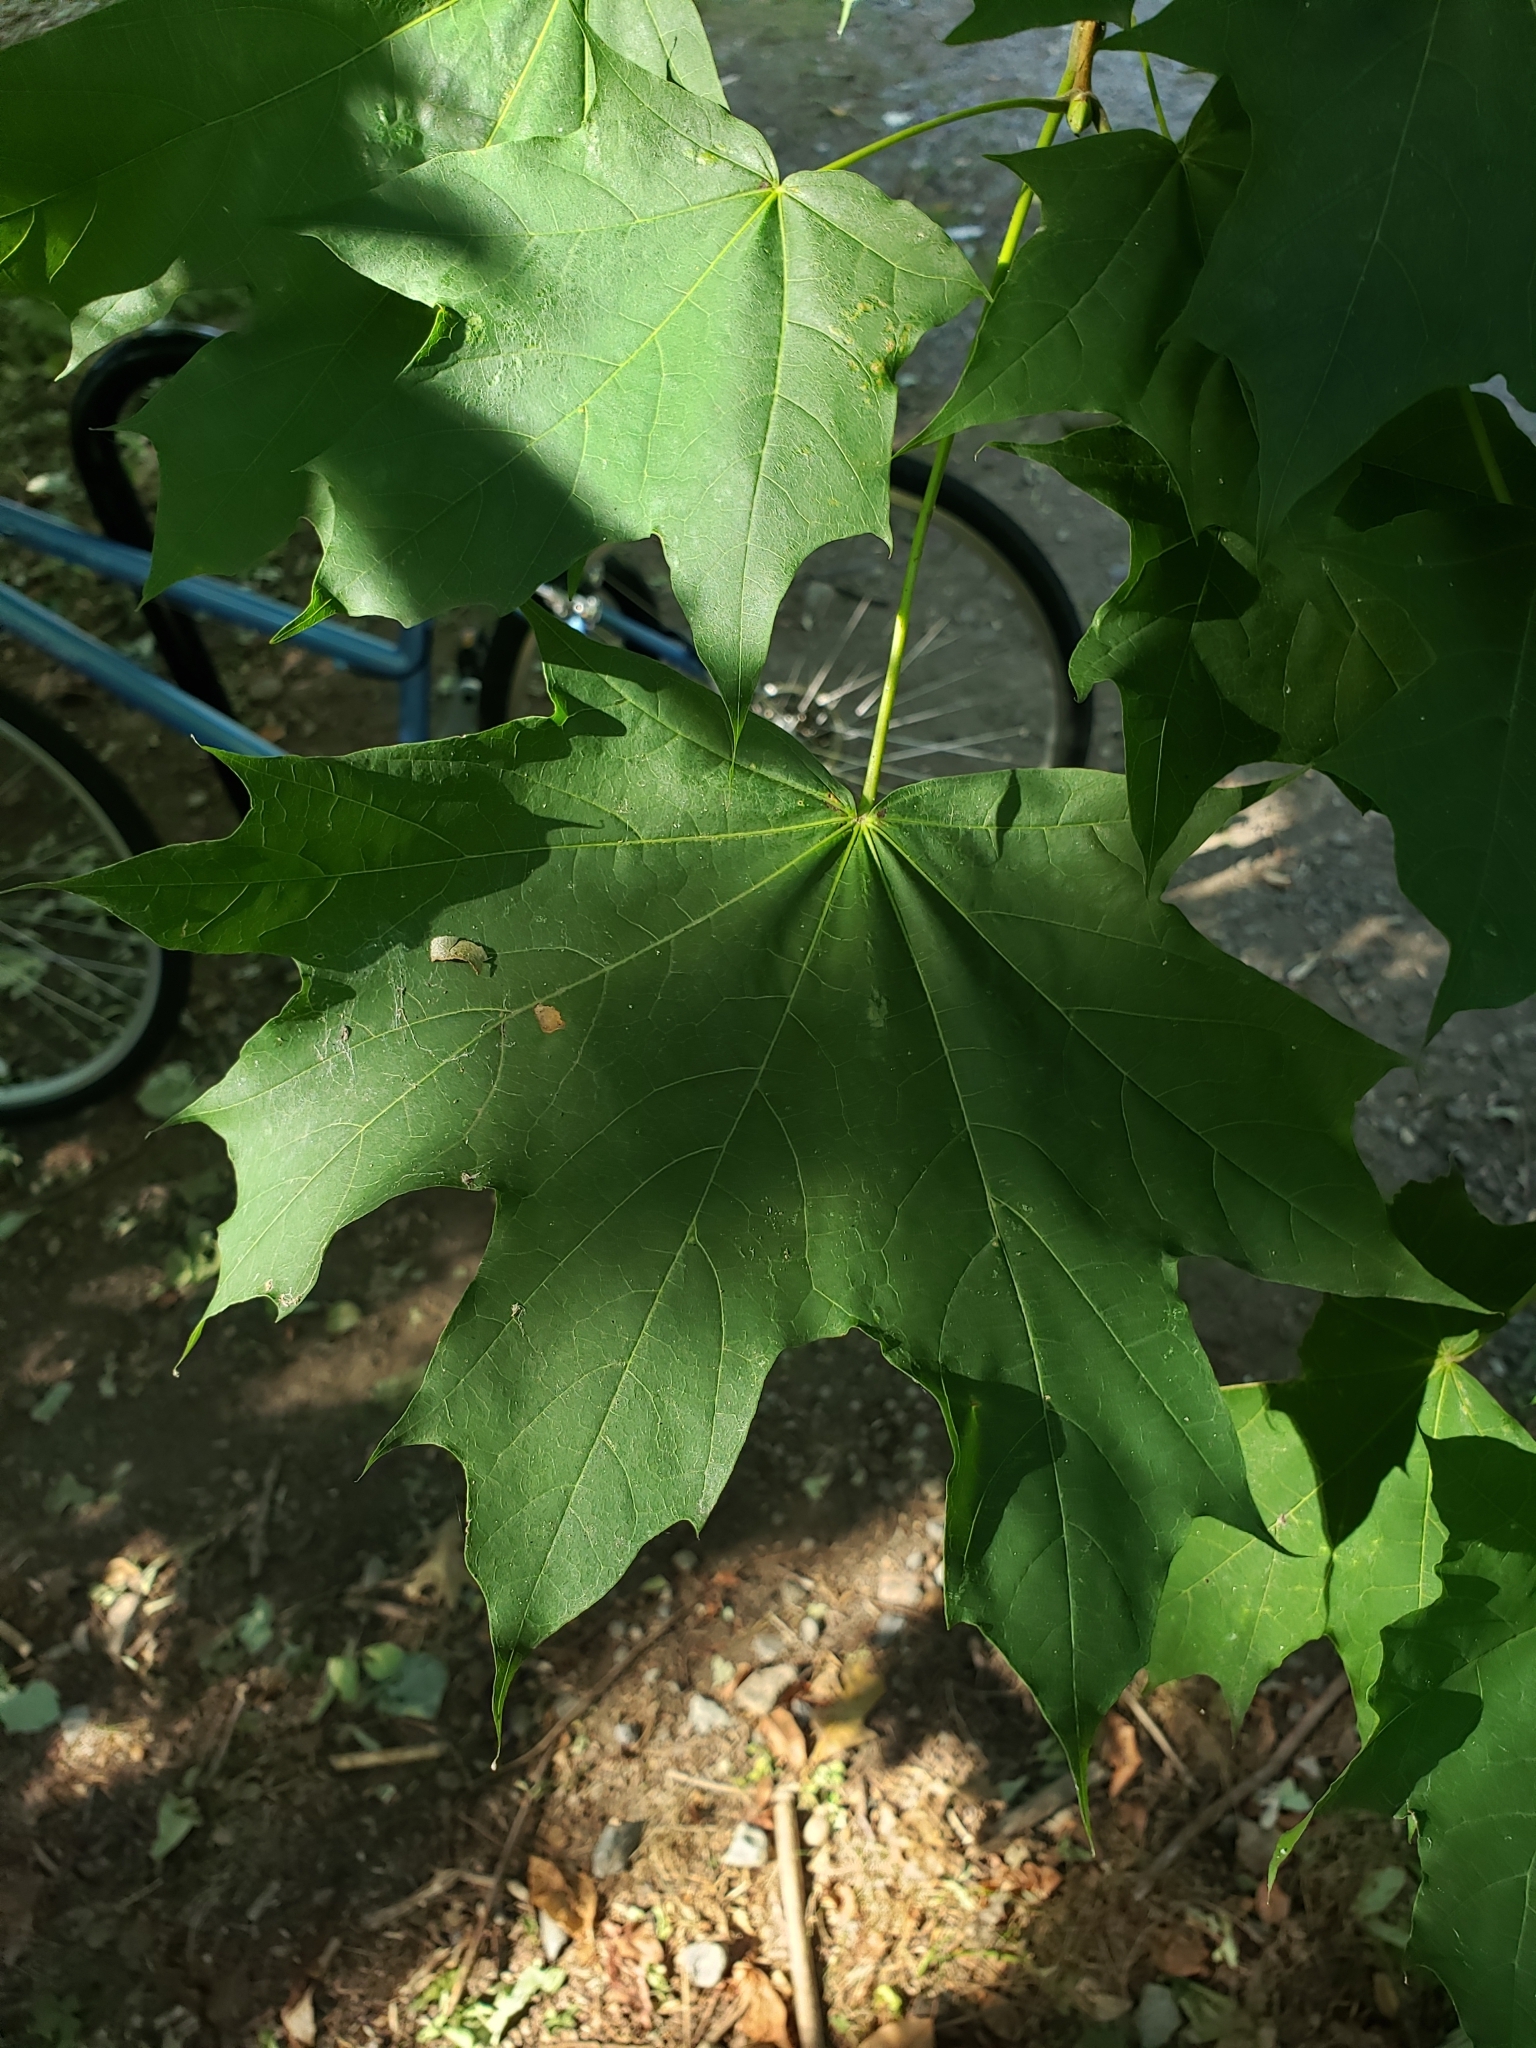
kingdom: Plantae
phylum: Tracheophyta
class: Magnoliopsida
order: Sapindales
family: Sapindaceae
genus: Acer
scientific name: Acer platanoides
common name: Norway maple
